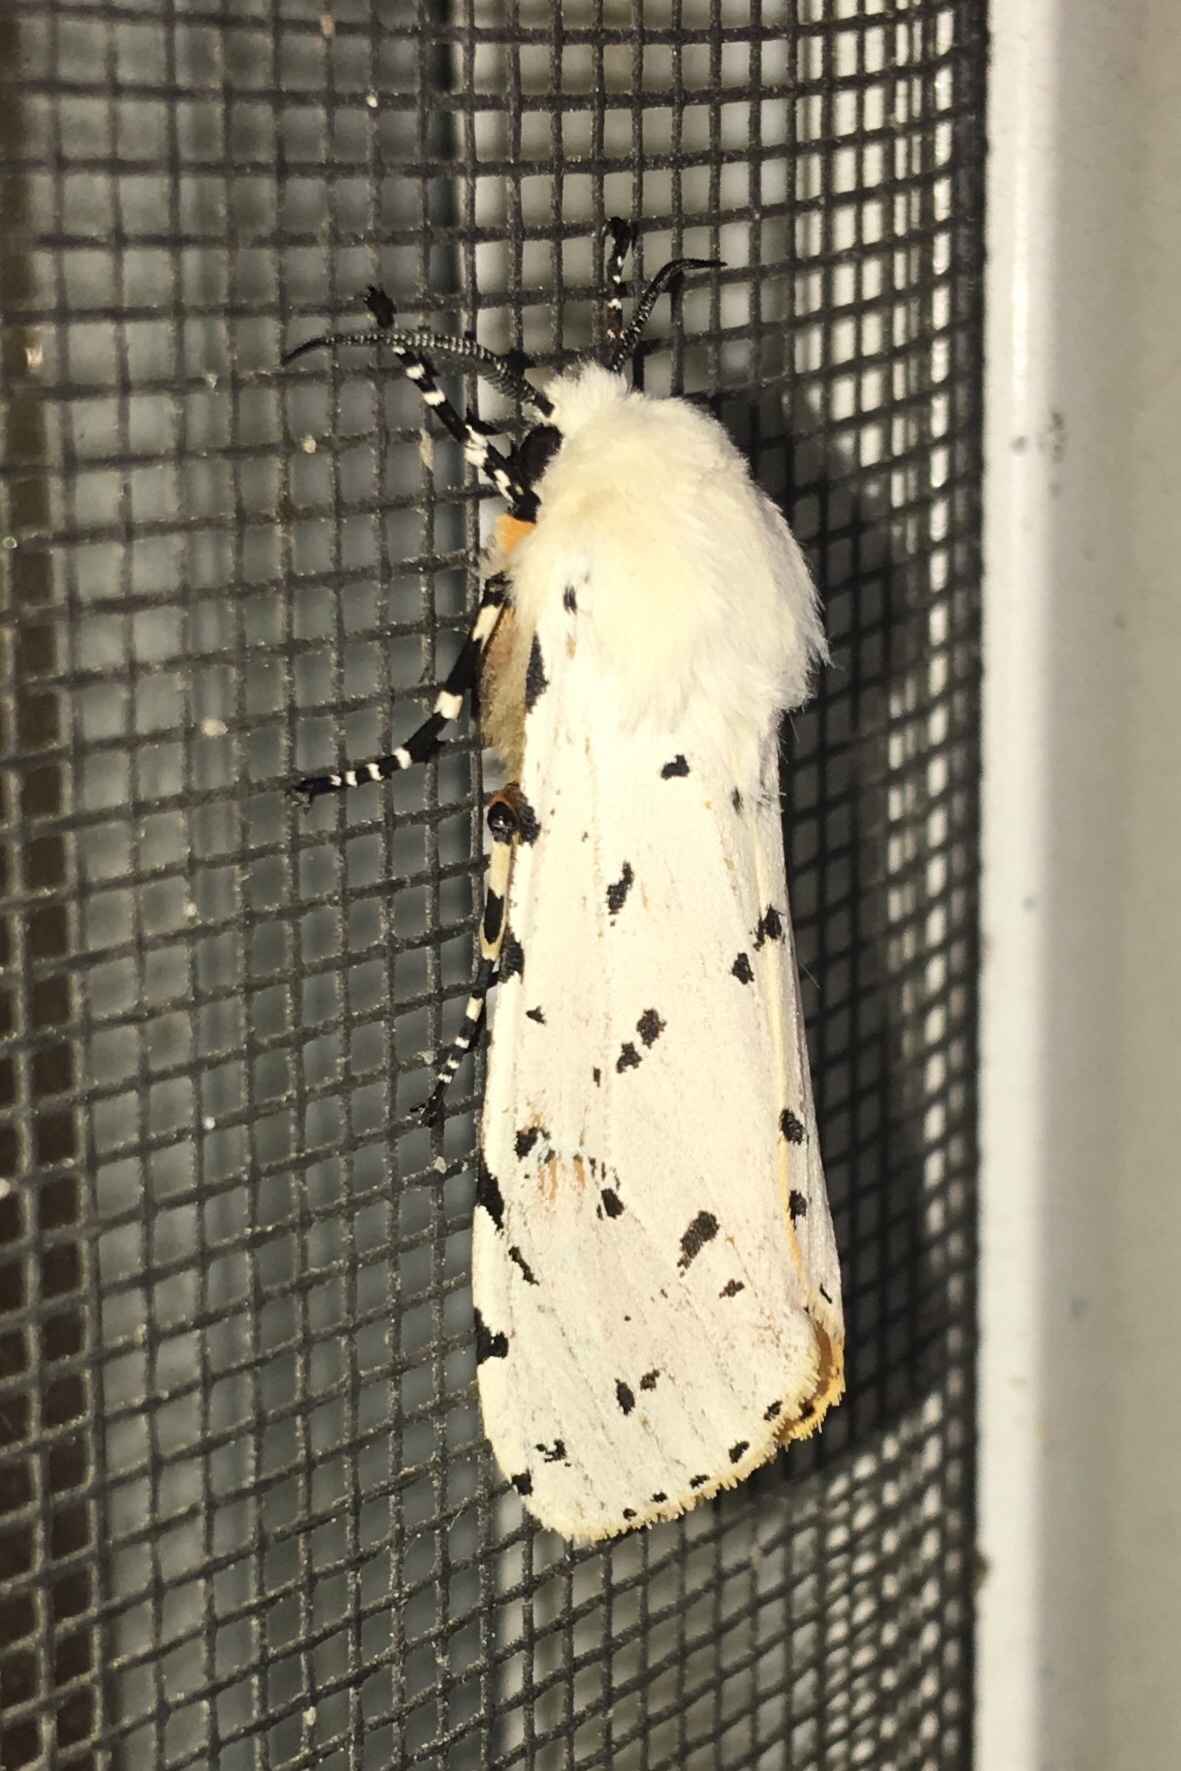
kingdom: Animalia
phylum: Arthropoda
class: Insecta
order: Lepidoptera
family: Erebidae
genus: Estigmene
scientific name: Estigmene acrea
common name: Salt marsh moth
